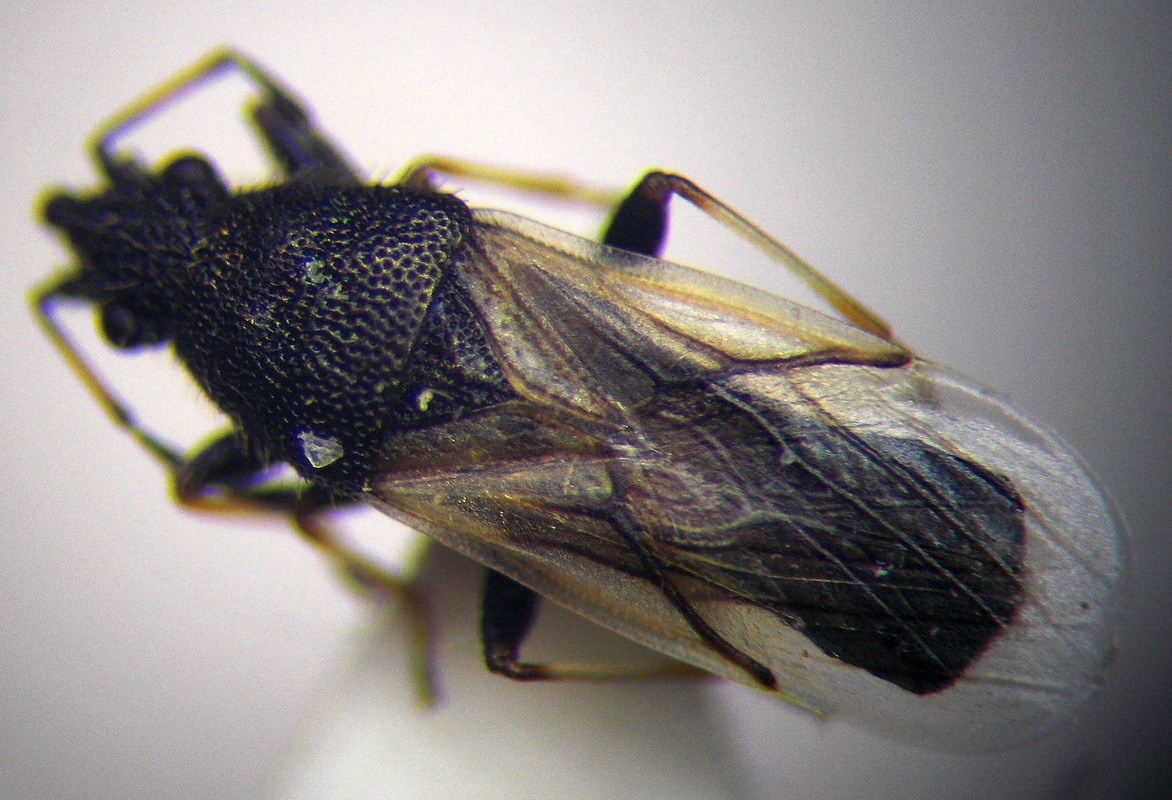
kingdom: Animalia
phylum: Arthropoda
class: Insecta
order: Hemiptera
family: Oxycarenidae
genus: Metopoplax
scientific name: Metopoplax origani
